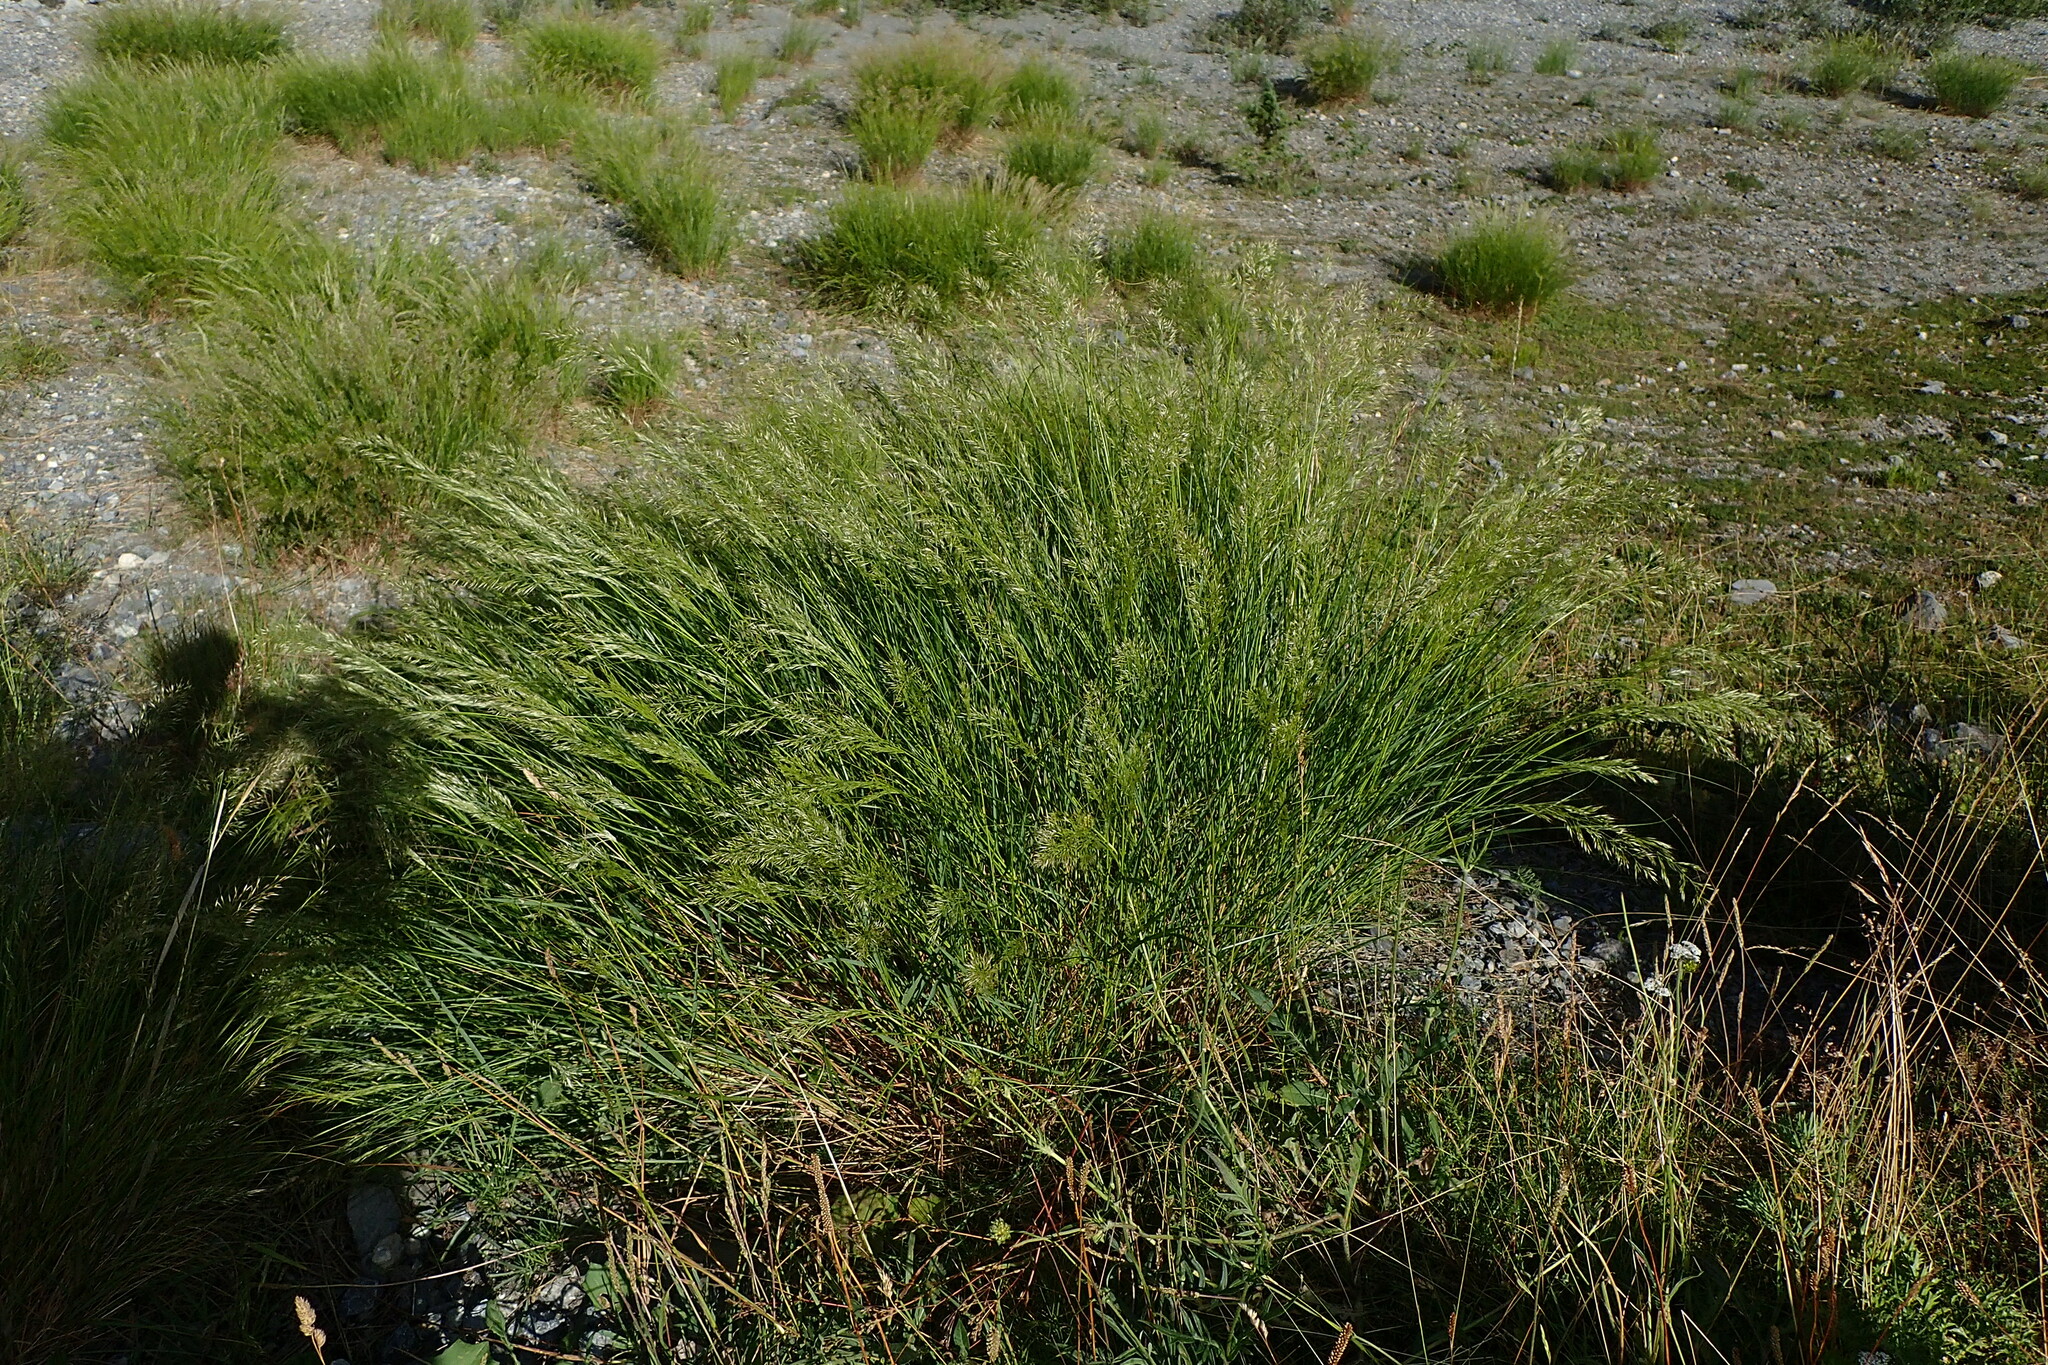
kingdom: Plantae
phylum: Tracheophyta
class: Liliopsida
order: Poales
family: Poaceae
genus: Achnatherum
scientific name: Achnatherum calamagrostis
